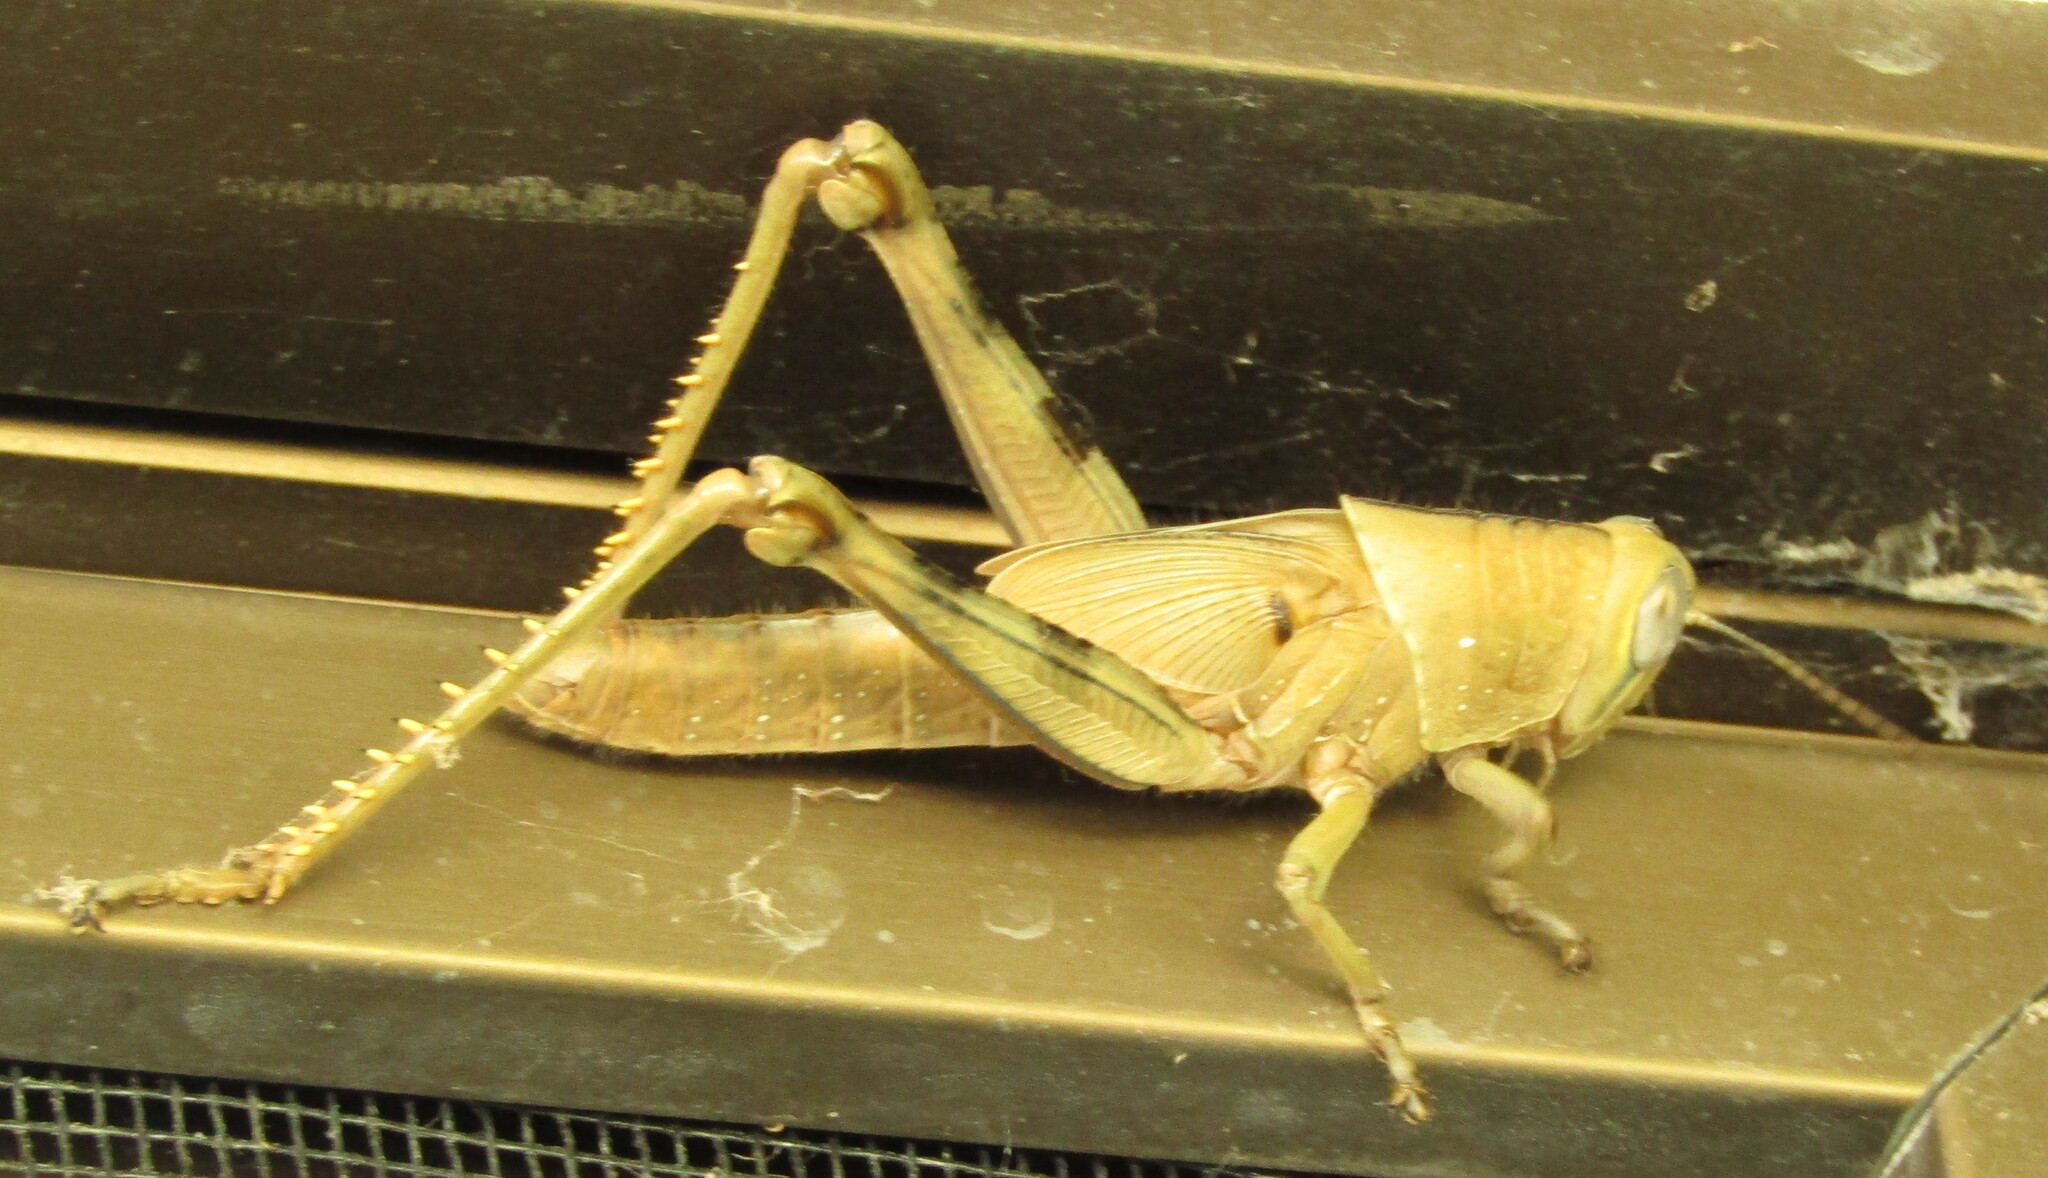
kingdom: Animalia
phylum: Arthropoda
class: Insecta
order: Orthoptera
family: Acrididae
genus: Valanga
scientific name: Valanga irregularis
